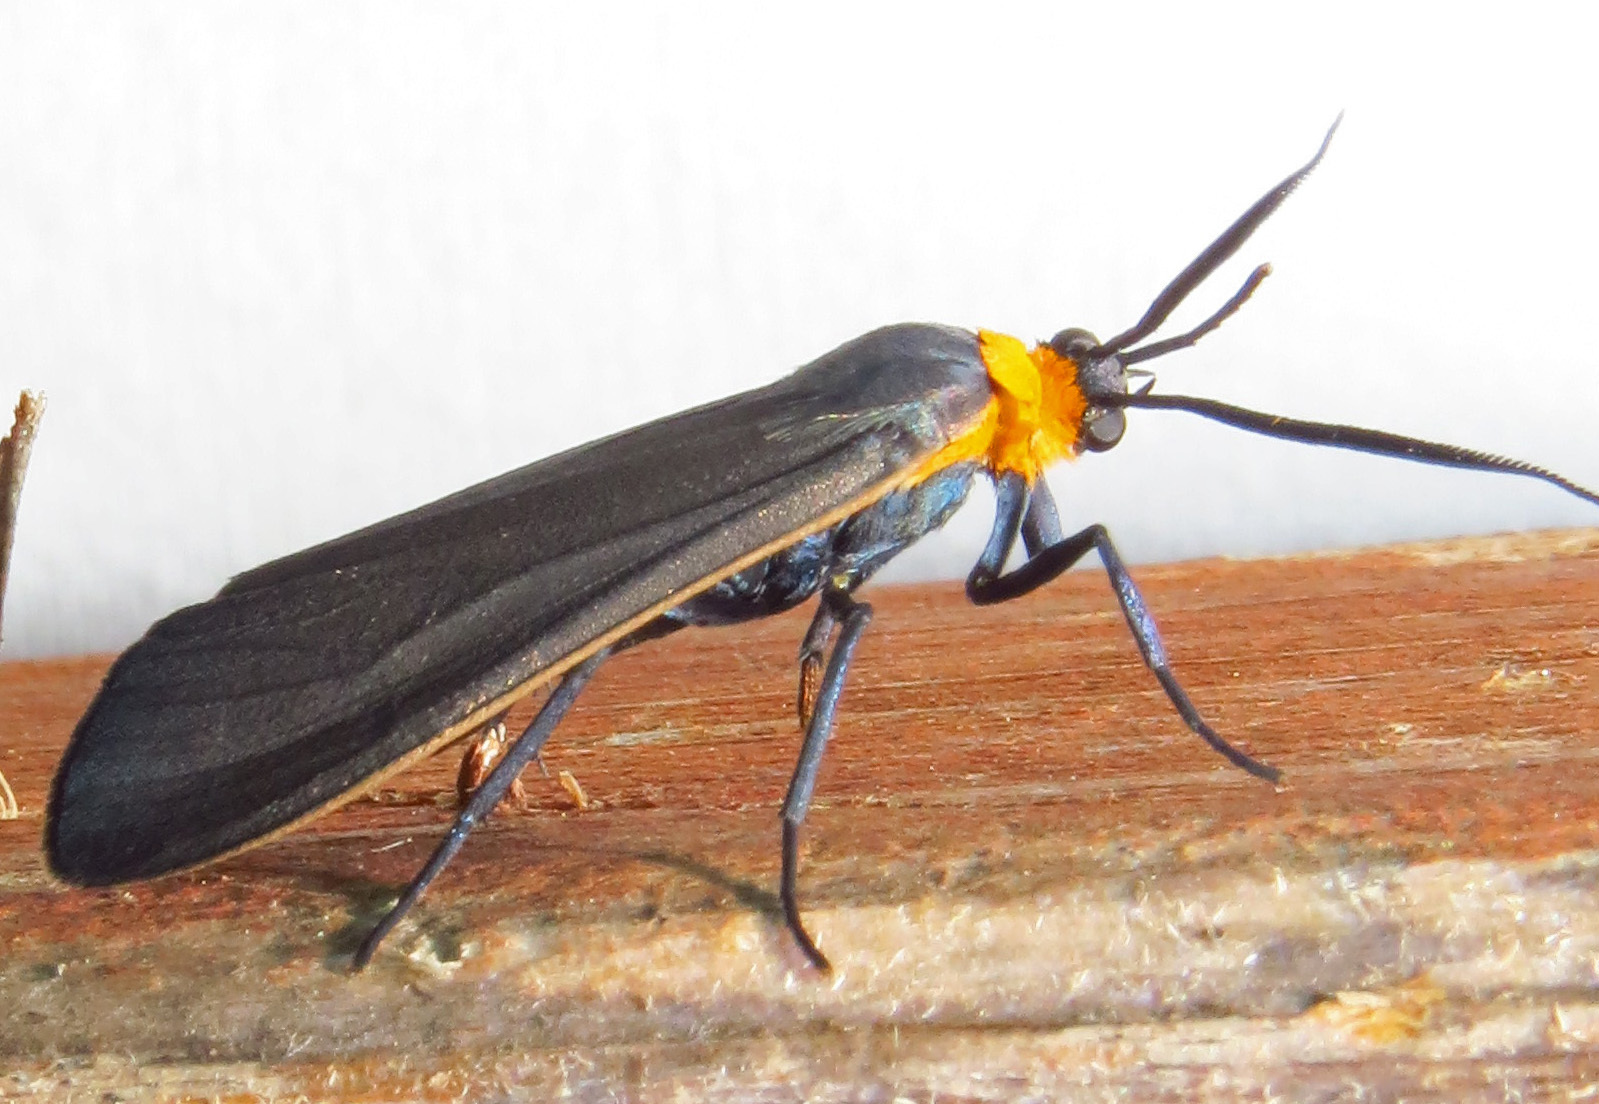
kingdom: Animalia
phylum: Arthropoda
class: Insecta
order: Lepidoptera
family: Erebidae
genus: Cisseps
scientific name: Cisseps fulvicollis
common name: Yellow-collared scape moth
